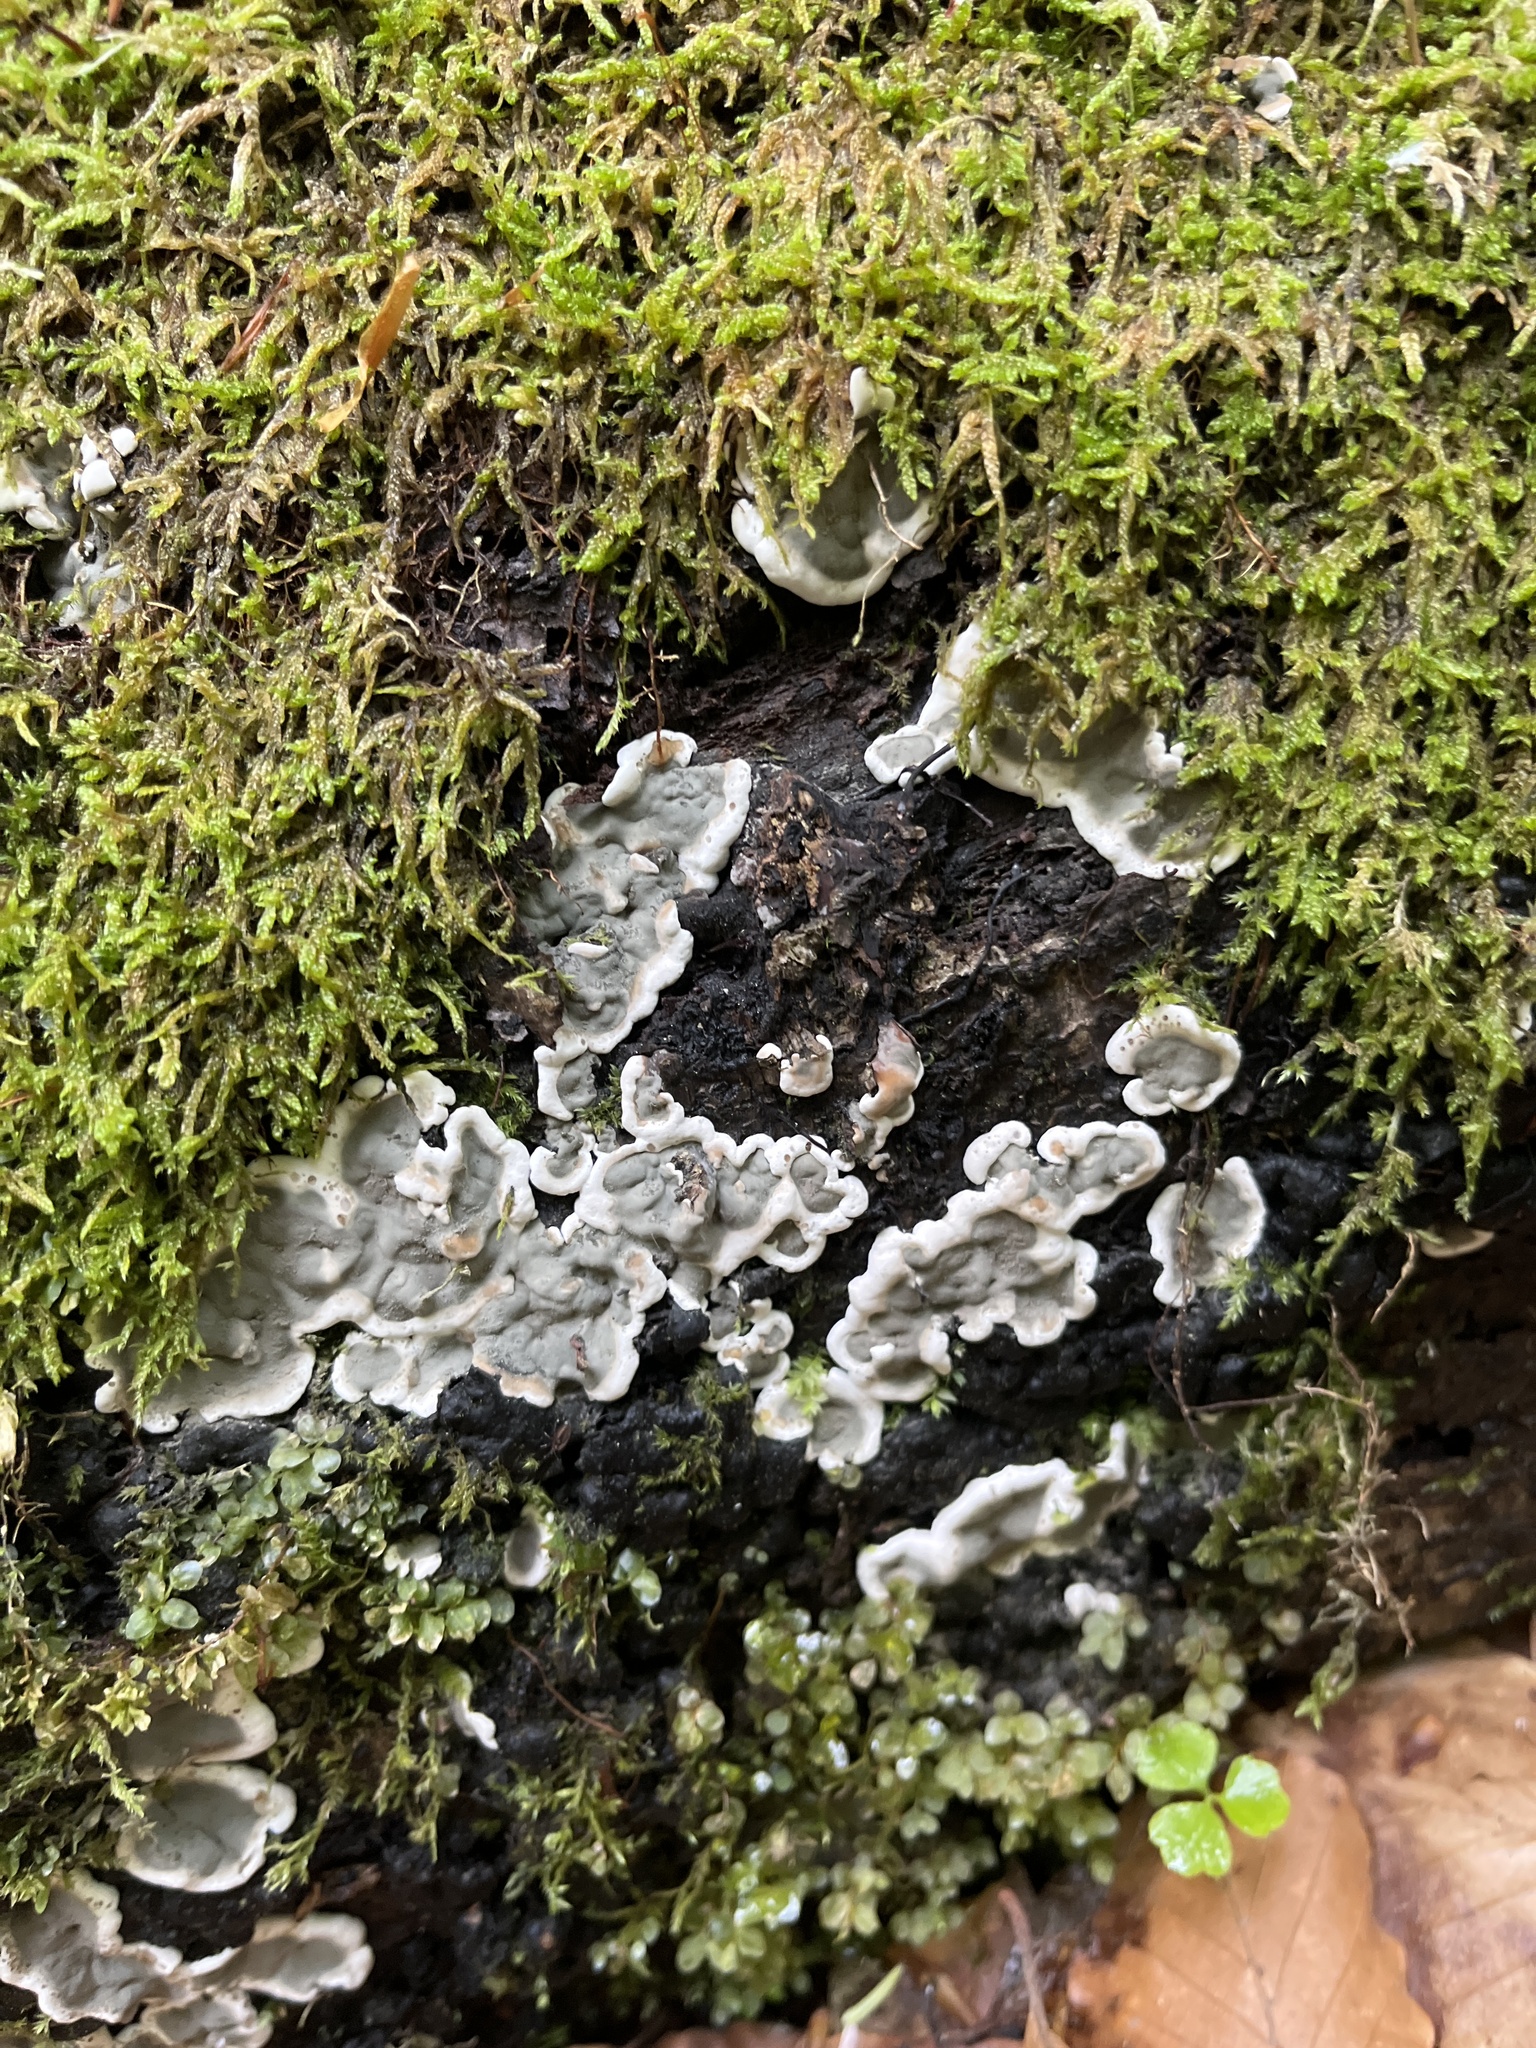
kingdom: Fungi
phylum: Ascomycota
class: Sordariomycetes
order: Xylariales
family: Xylariaceae
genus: Kretzschmaria
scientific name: Kretzschmaria deusta
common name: Brittle cinder
